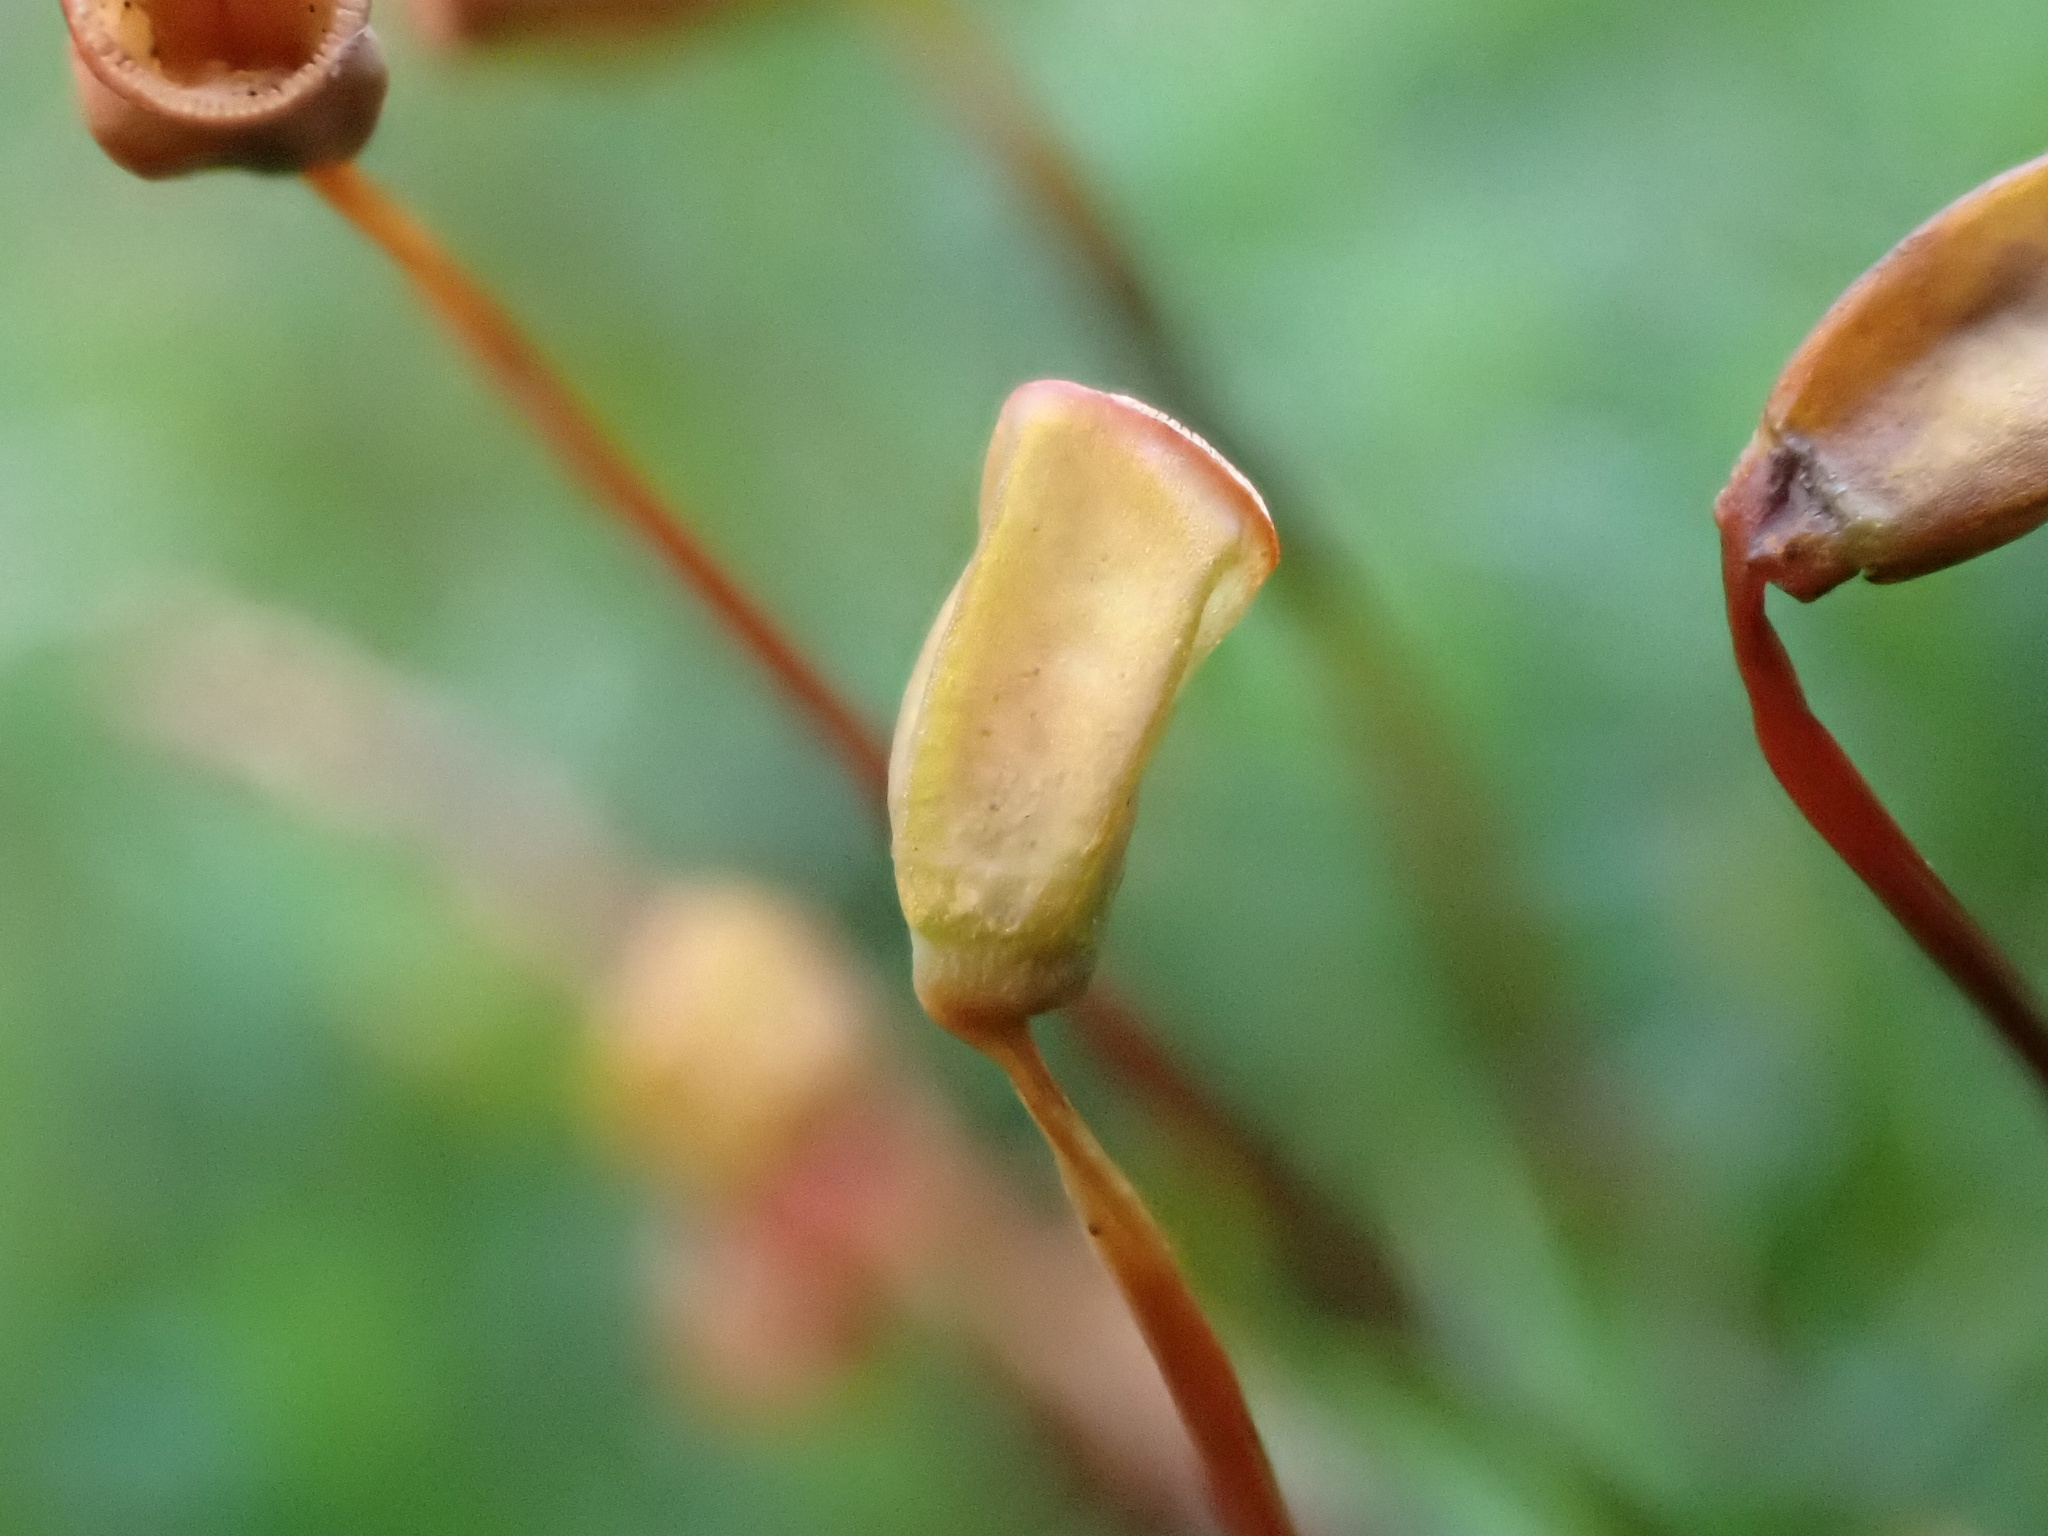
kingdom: Plantae
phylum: Bryophyta
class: Polytrichopsida
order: Polytrichales
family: Polytrichaceae
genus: Polytrichum
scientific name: Polytrichum formosum
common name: Bank haircap moss
